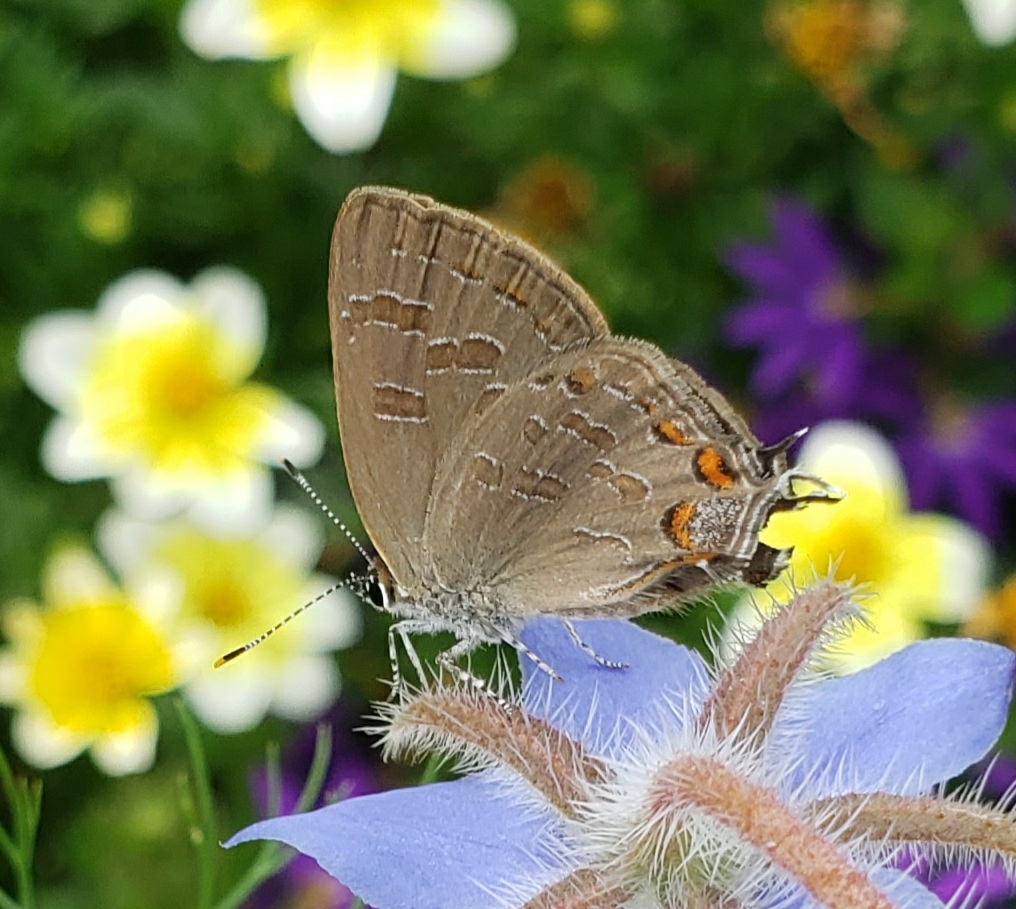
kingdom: Animalia
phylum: Arthropoda
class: Insecta
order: Lepidoptera
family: Lycaenidae
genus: Satyrium
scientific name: Satyrium liparops
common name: Striped hairstreak
